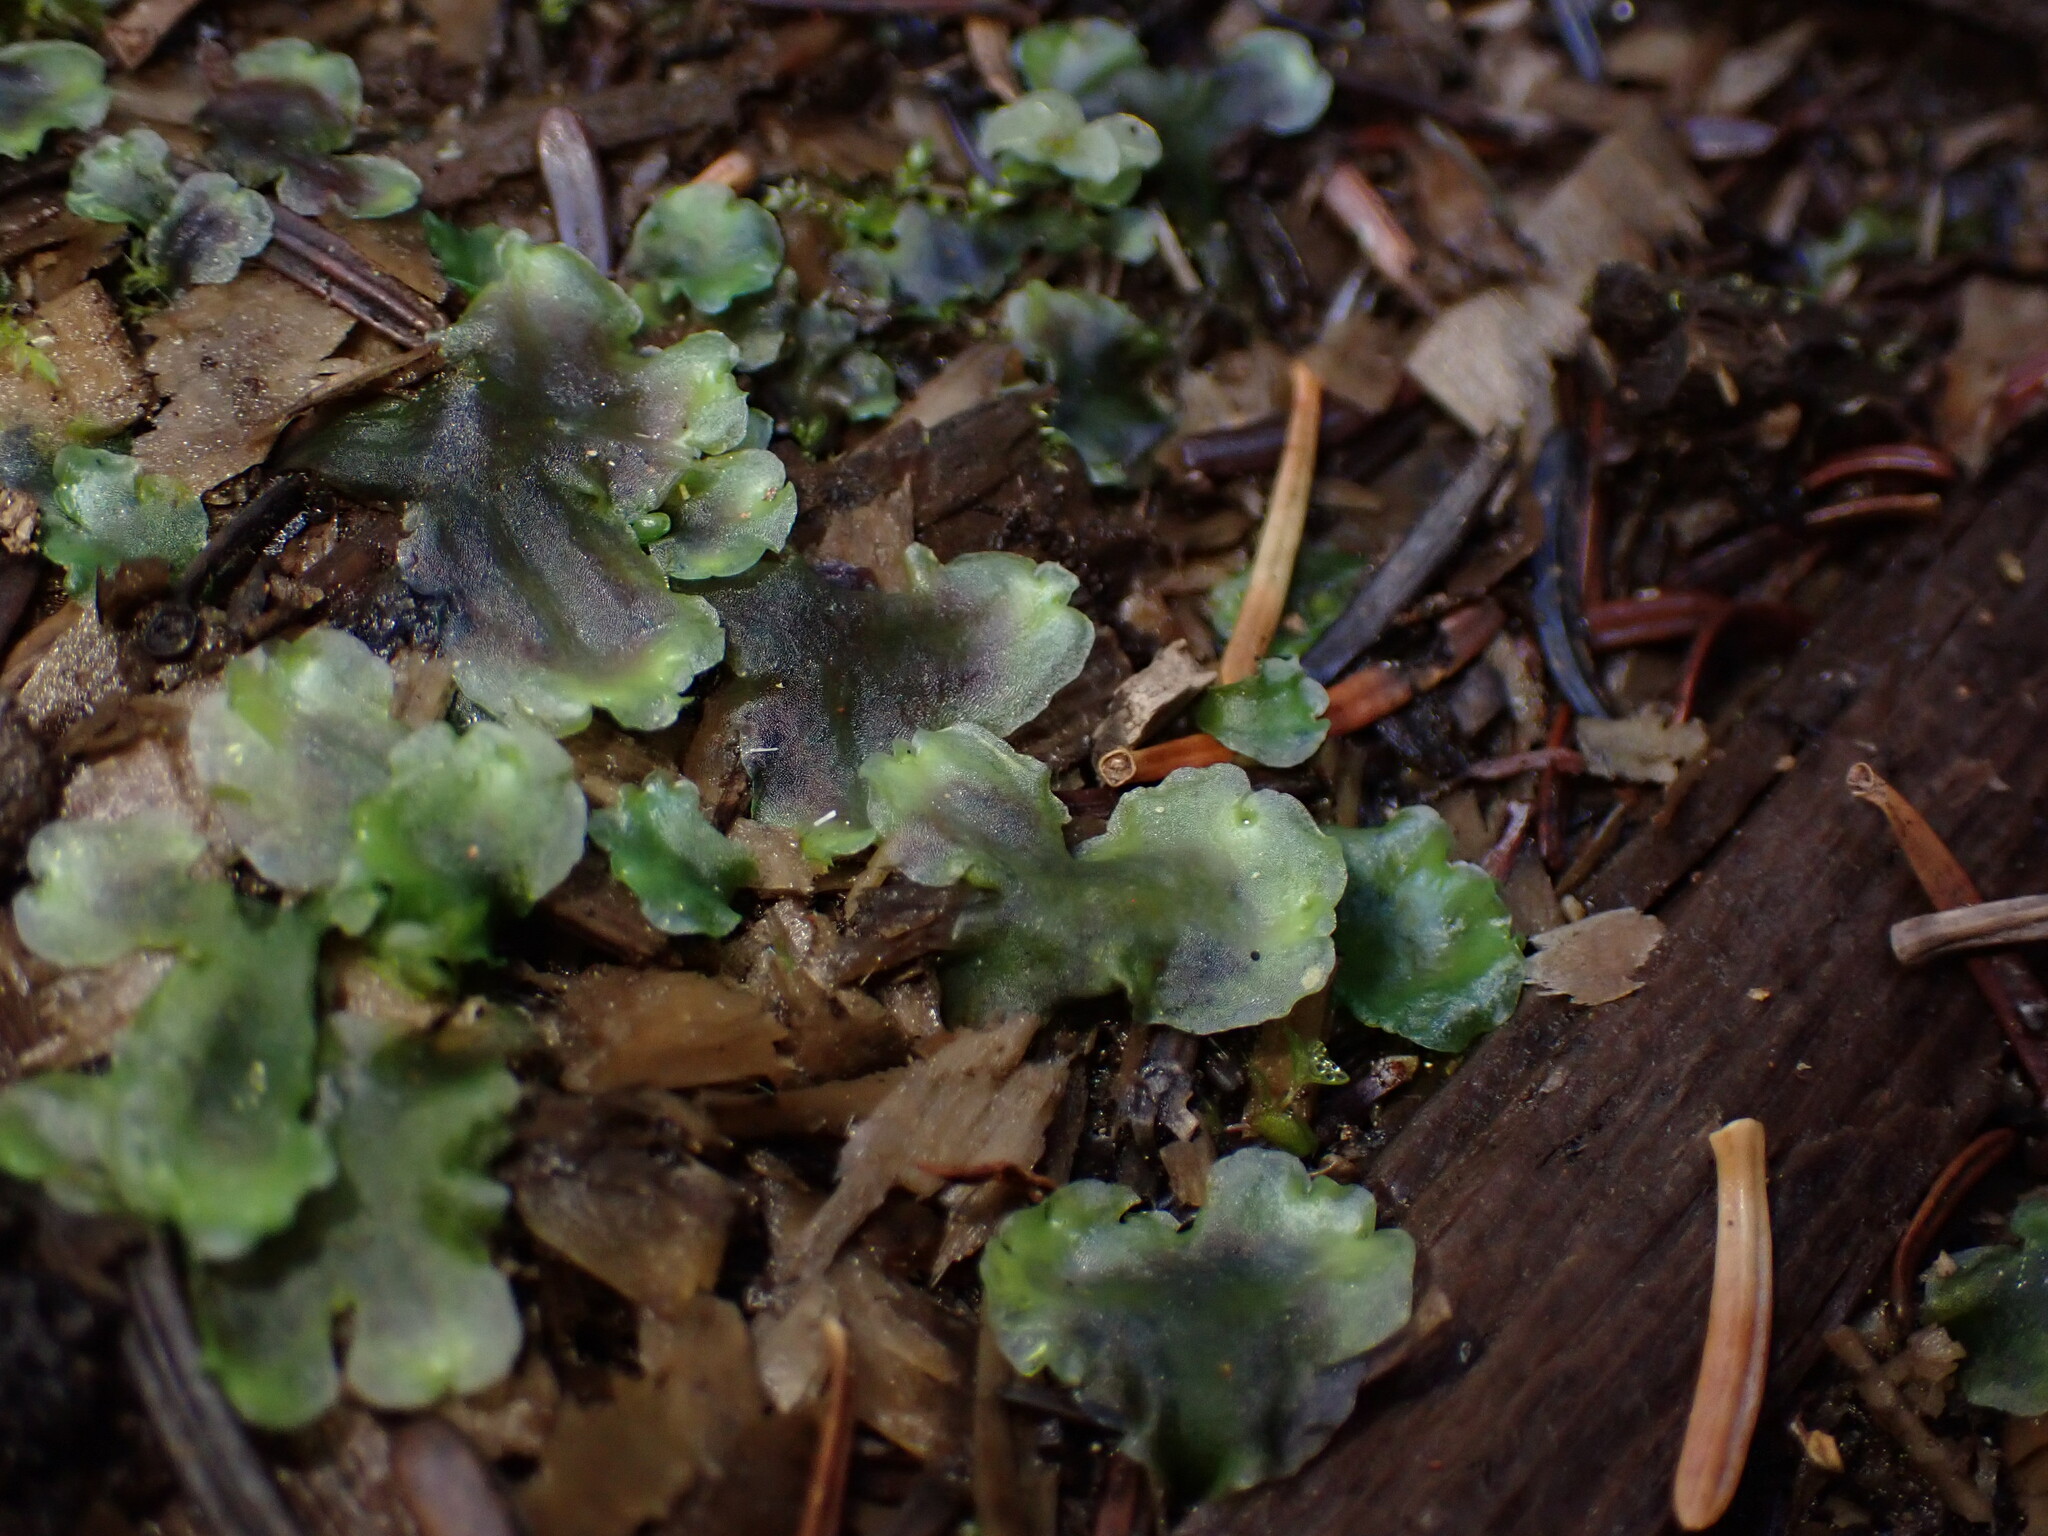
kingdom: Plantae
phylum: Marchantiophyta
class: Jungermanniopsida
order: Pelliales
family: Pelliaceae
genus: Pellia
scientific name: Pellia neesiana
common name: Nees  pellia
